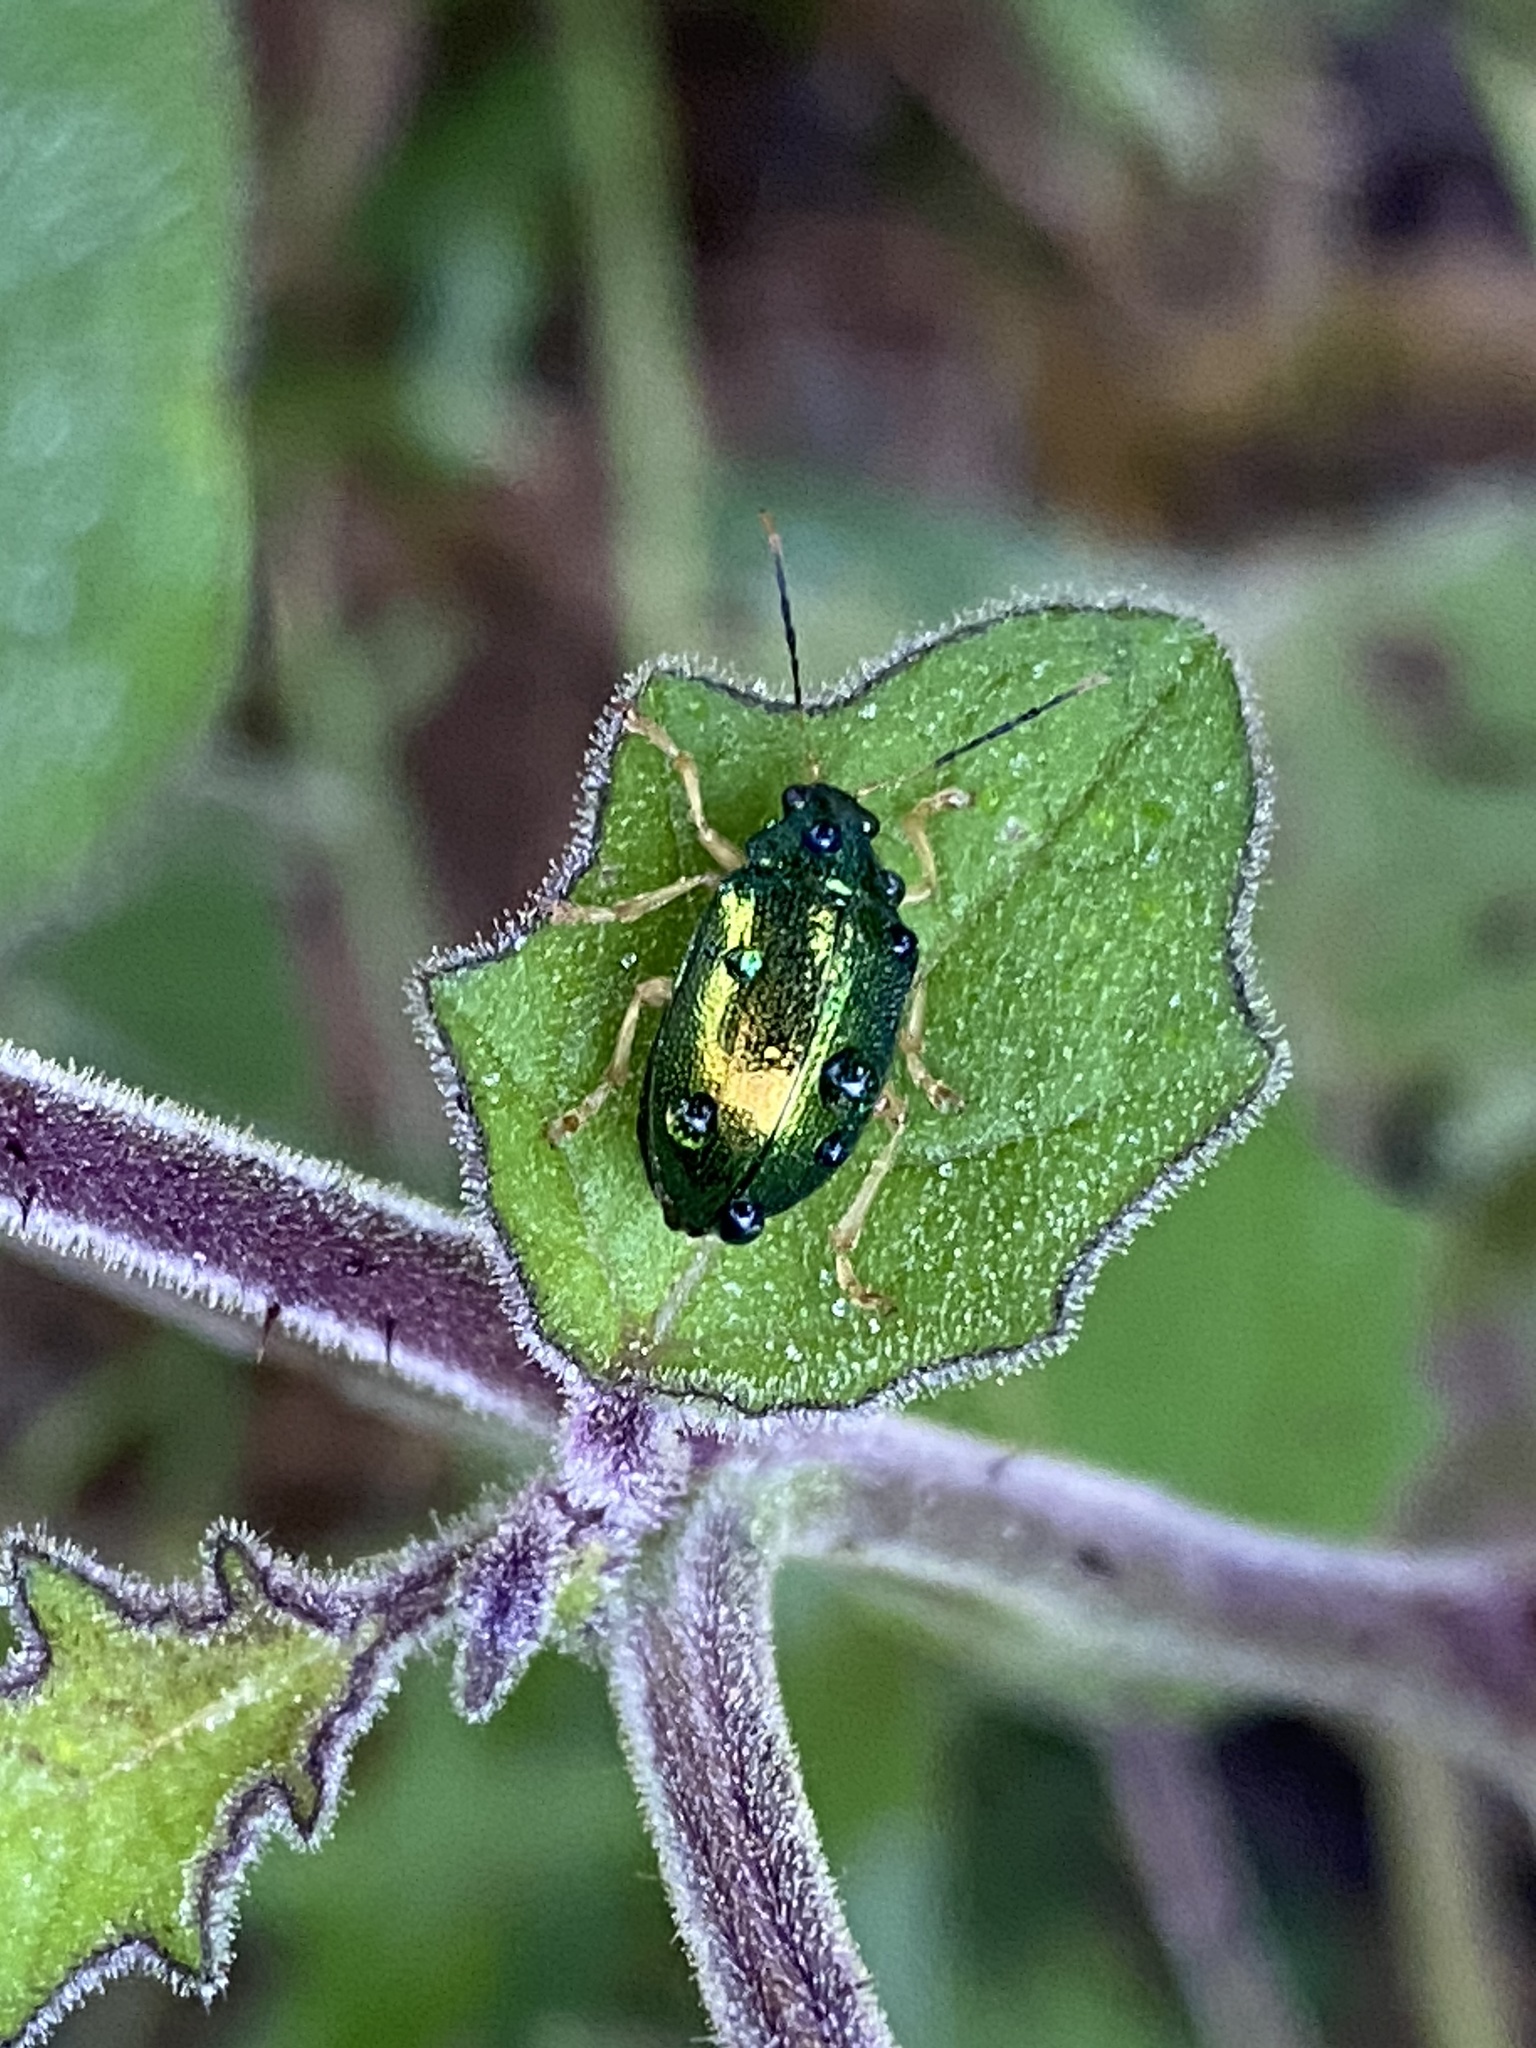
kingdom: Animalia
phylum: Arthropoda
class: Insecta
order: Coleoptera
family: Chrysomelidae
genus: Colaspis
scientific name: Colaspis
